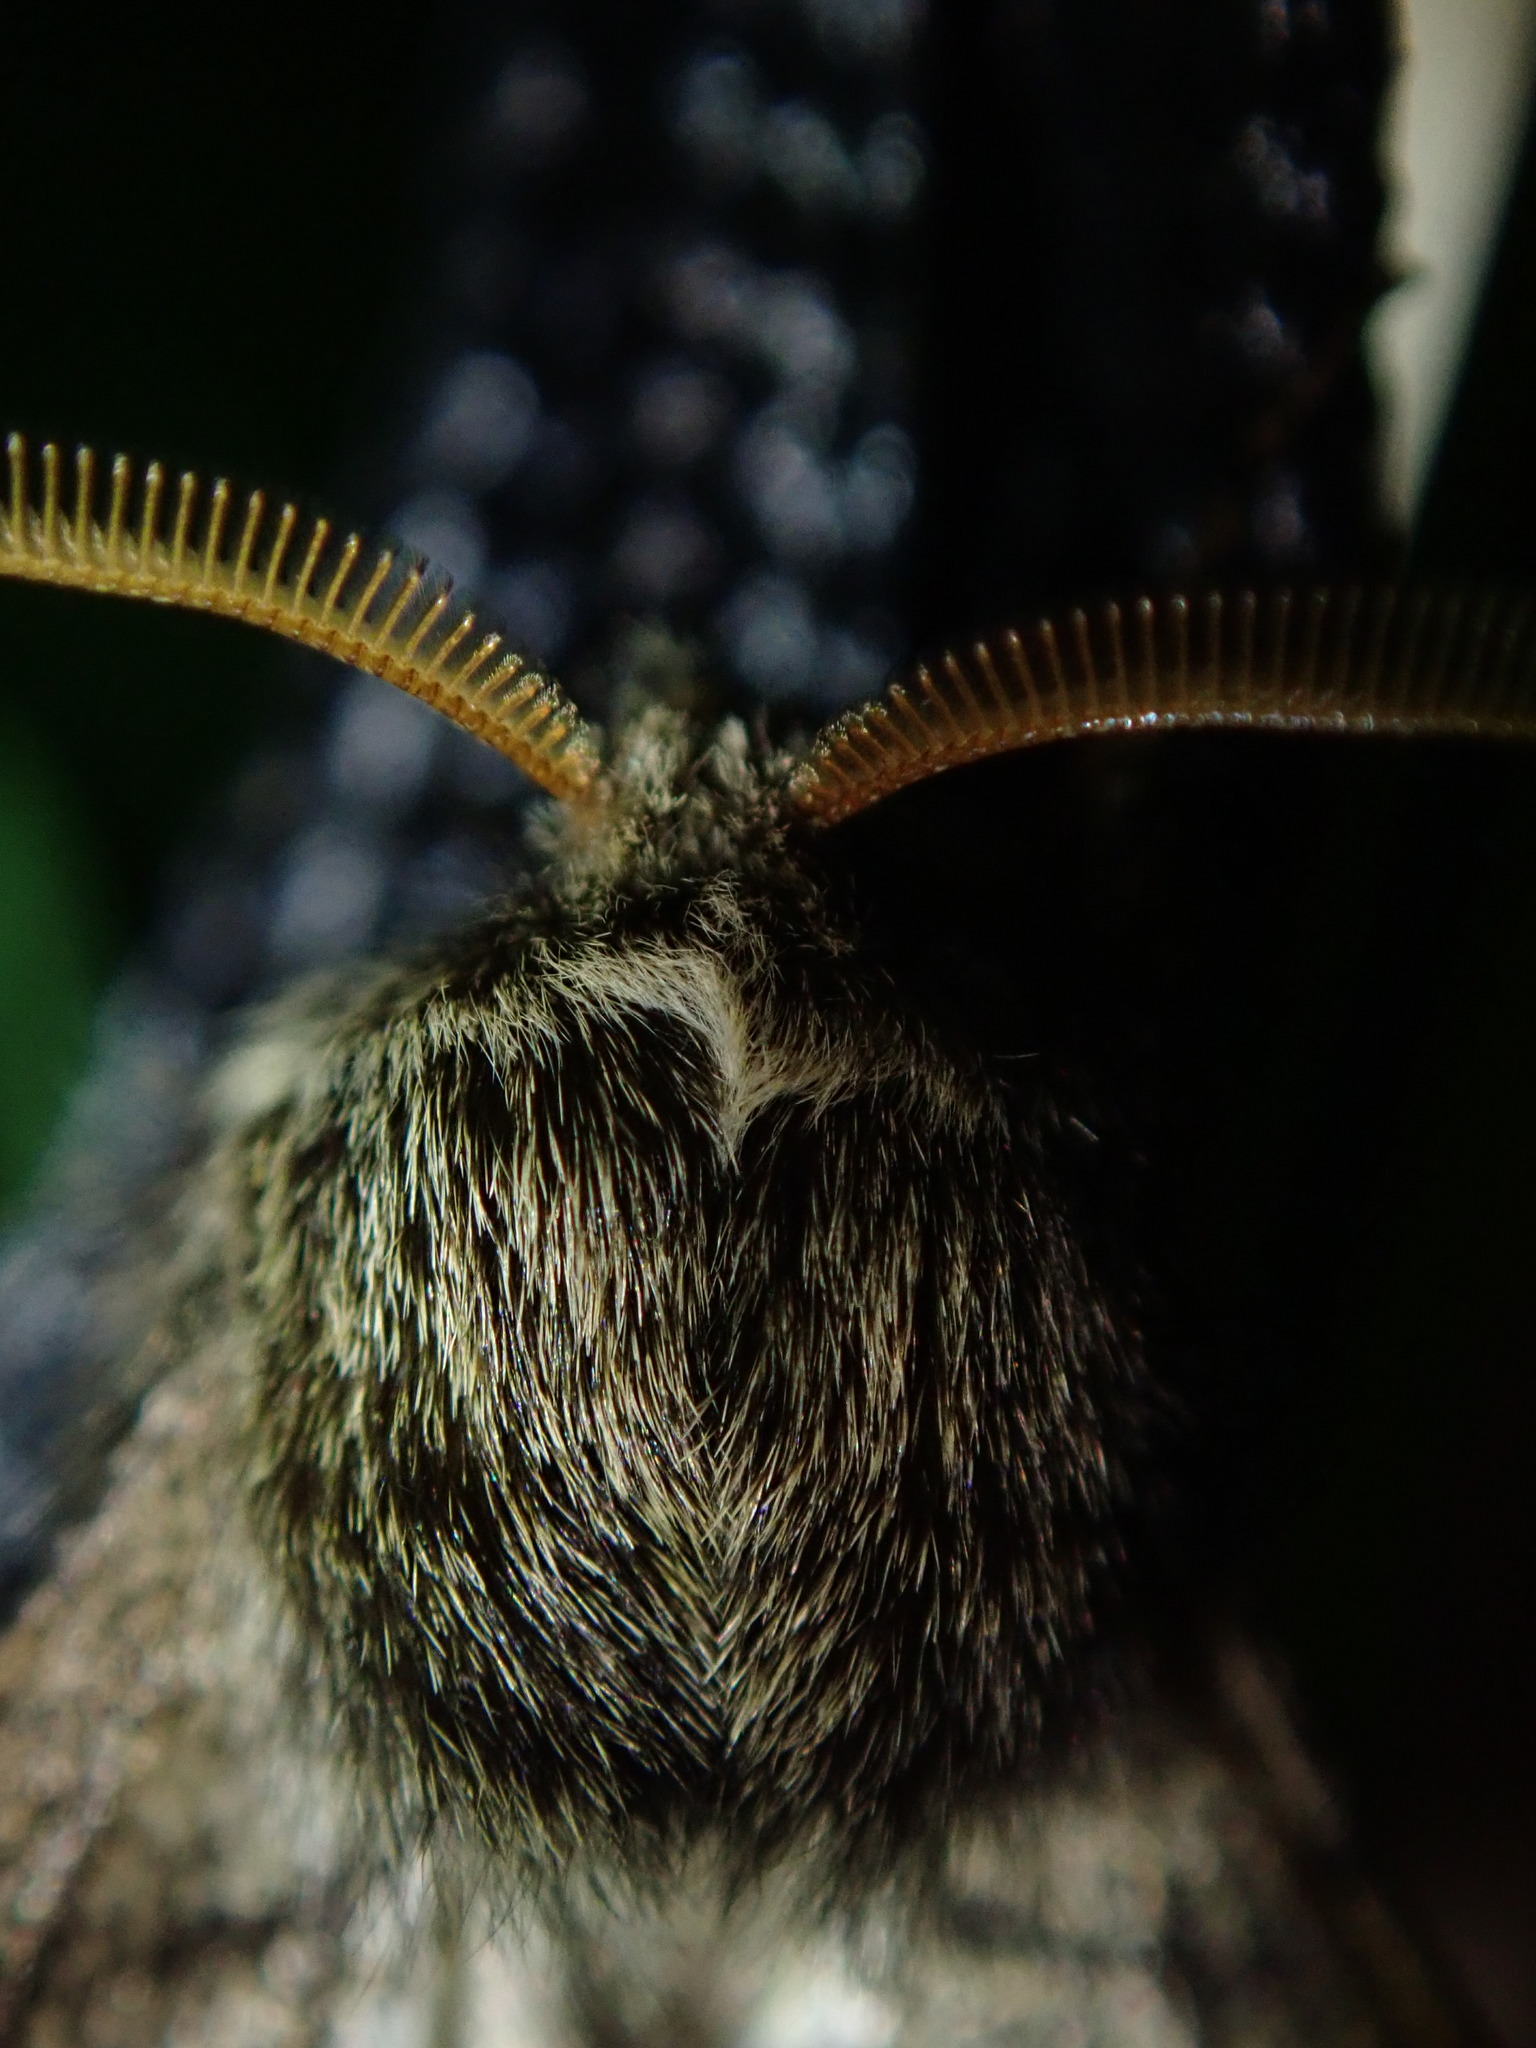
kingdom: Animalia
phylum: Arthropoda
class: Insecta
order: Lepidoptera
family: Geometridae
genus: Apocheima
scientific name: Apocheima hispidaria
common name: Small brindled beauty
